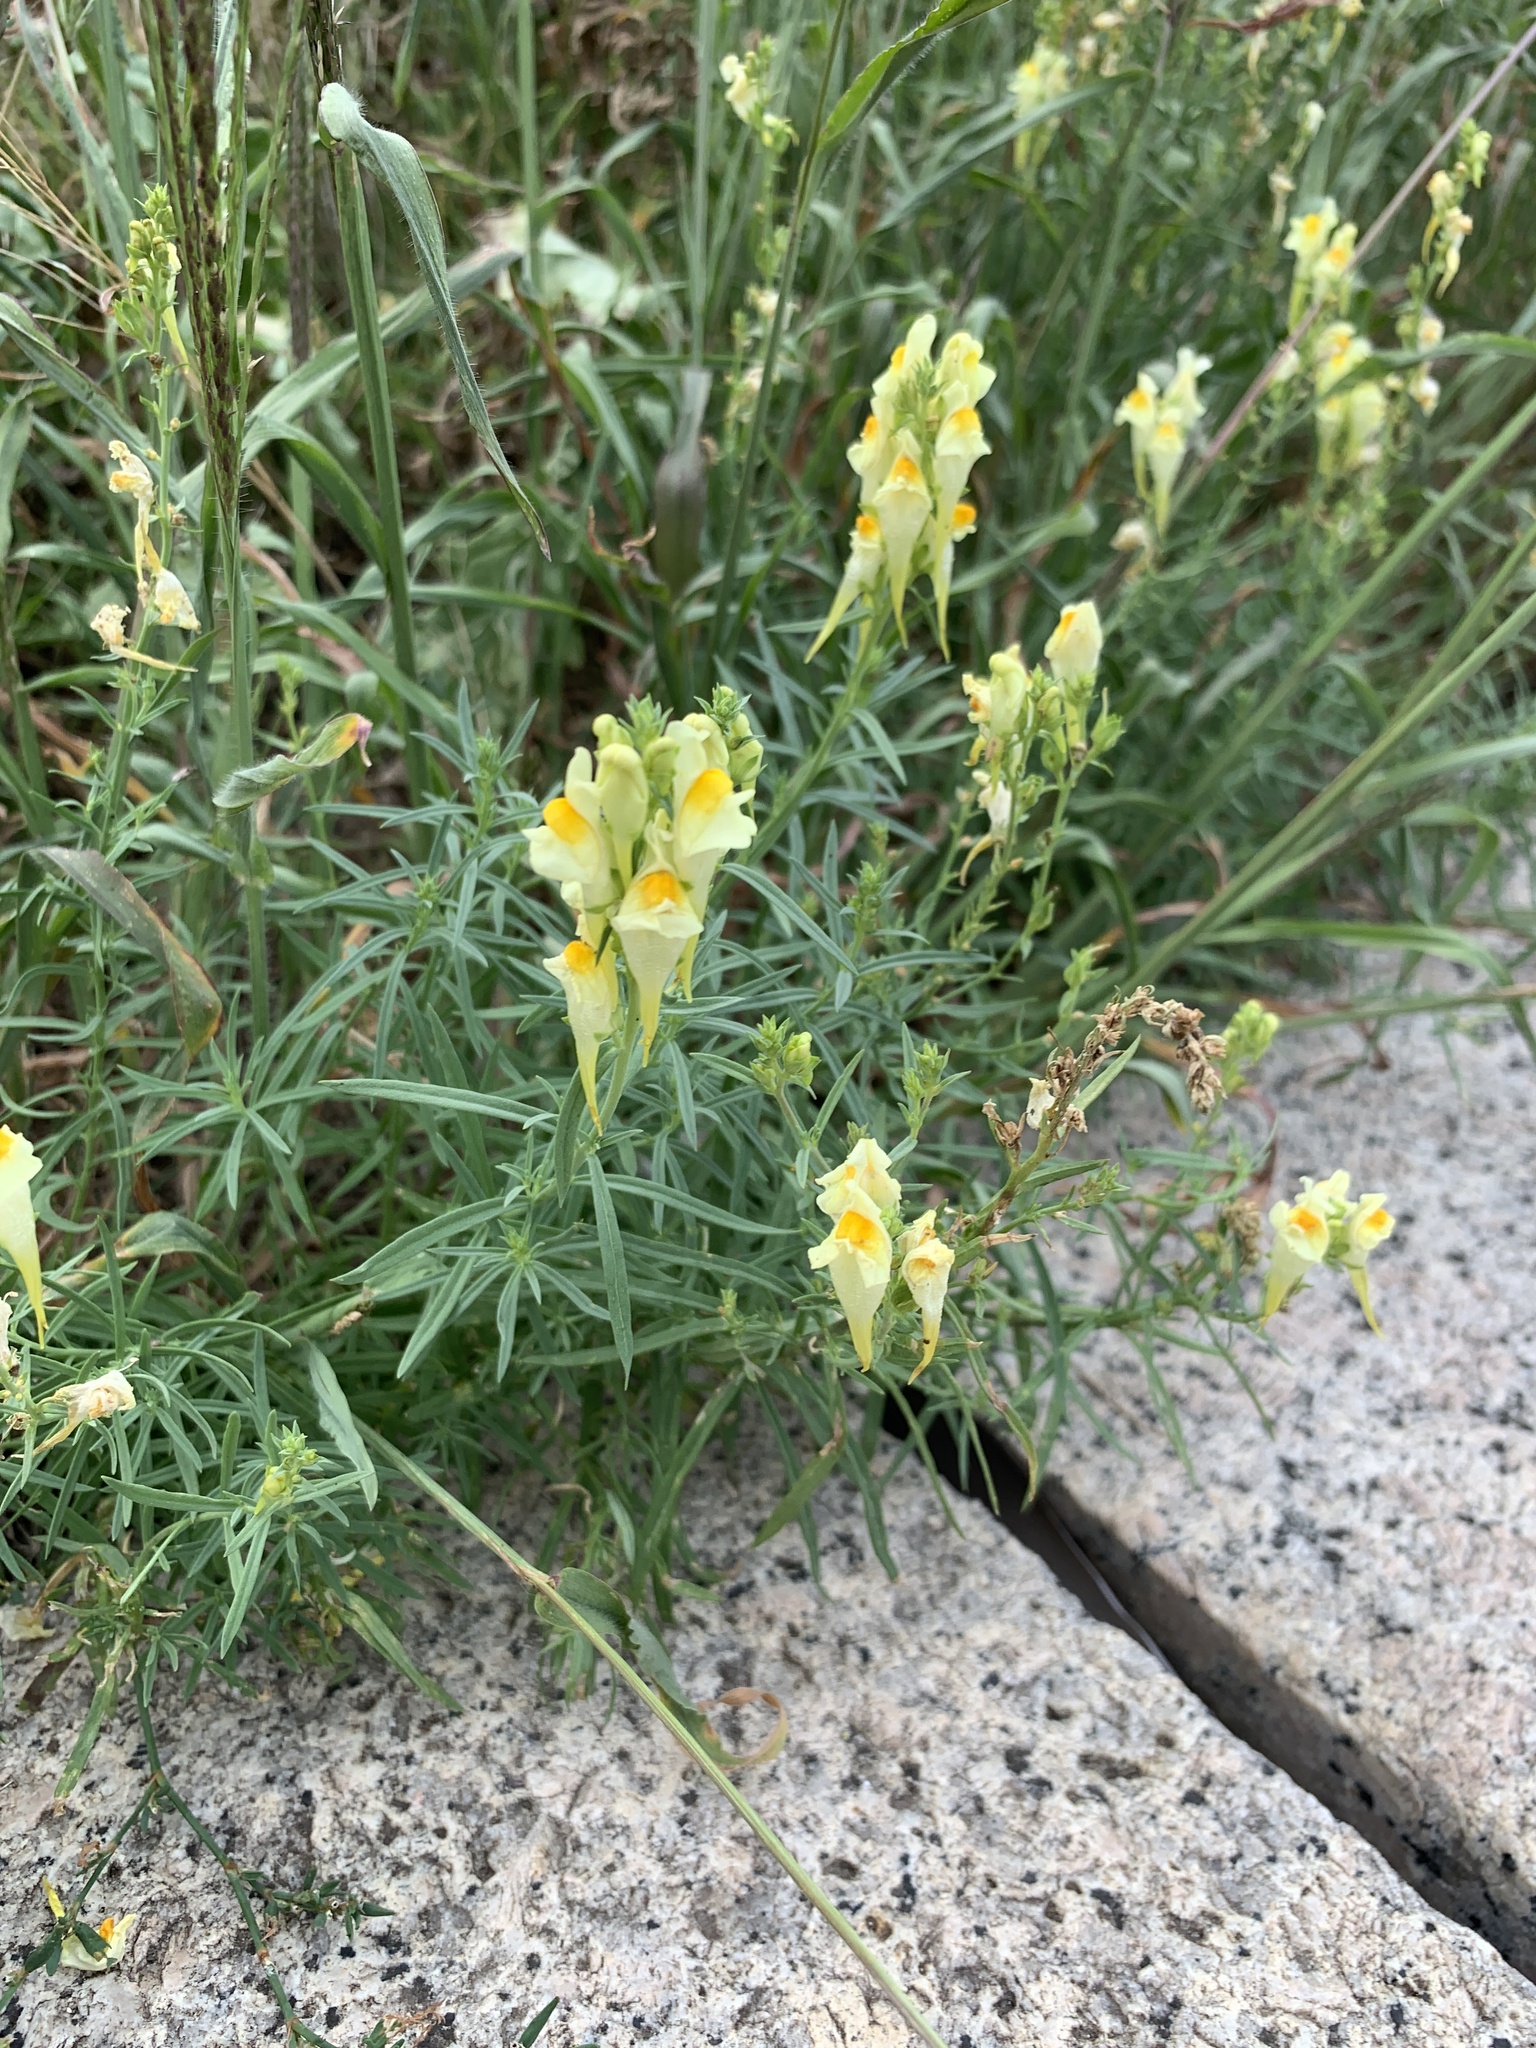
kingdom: Plantae
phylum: Tracheophyta
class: Magnoliopsida
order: Lamiales
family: Plantaginaceae
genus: Linaria
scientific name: Linaria vulgaris
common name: Butter and eggs
